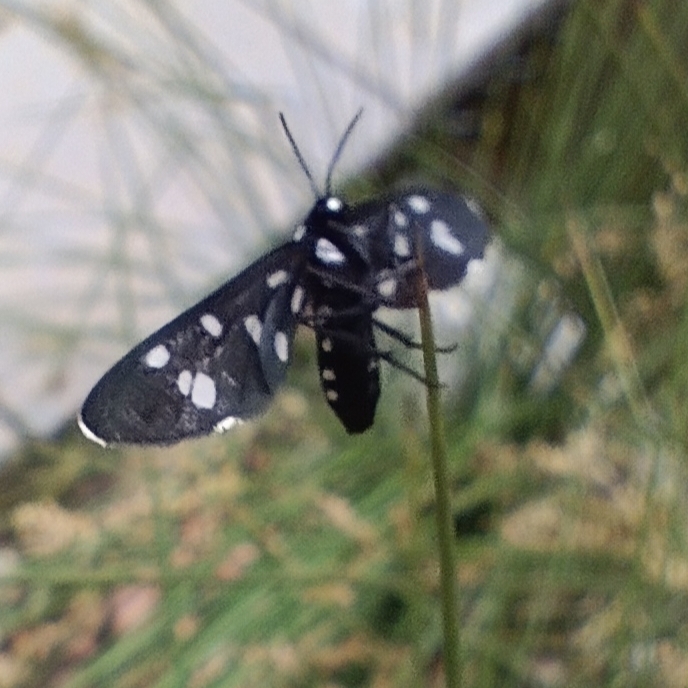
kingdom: Animalia
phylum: Arthropoda
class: Insecta
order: Lepidoptera
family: Erebidae
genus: Ceryx
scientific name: Ceryx longipes
